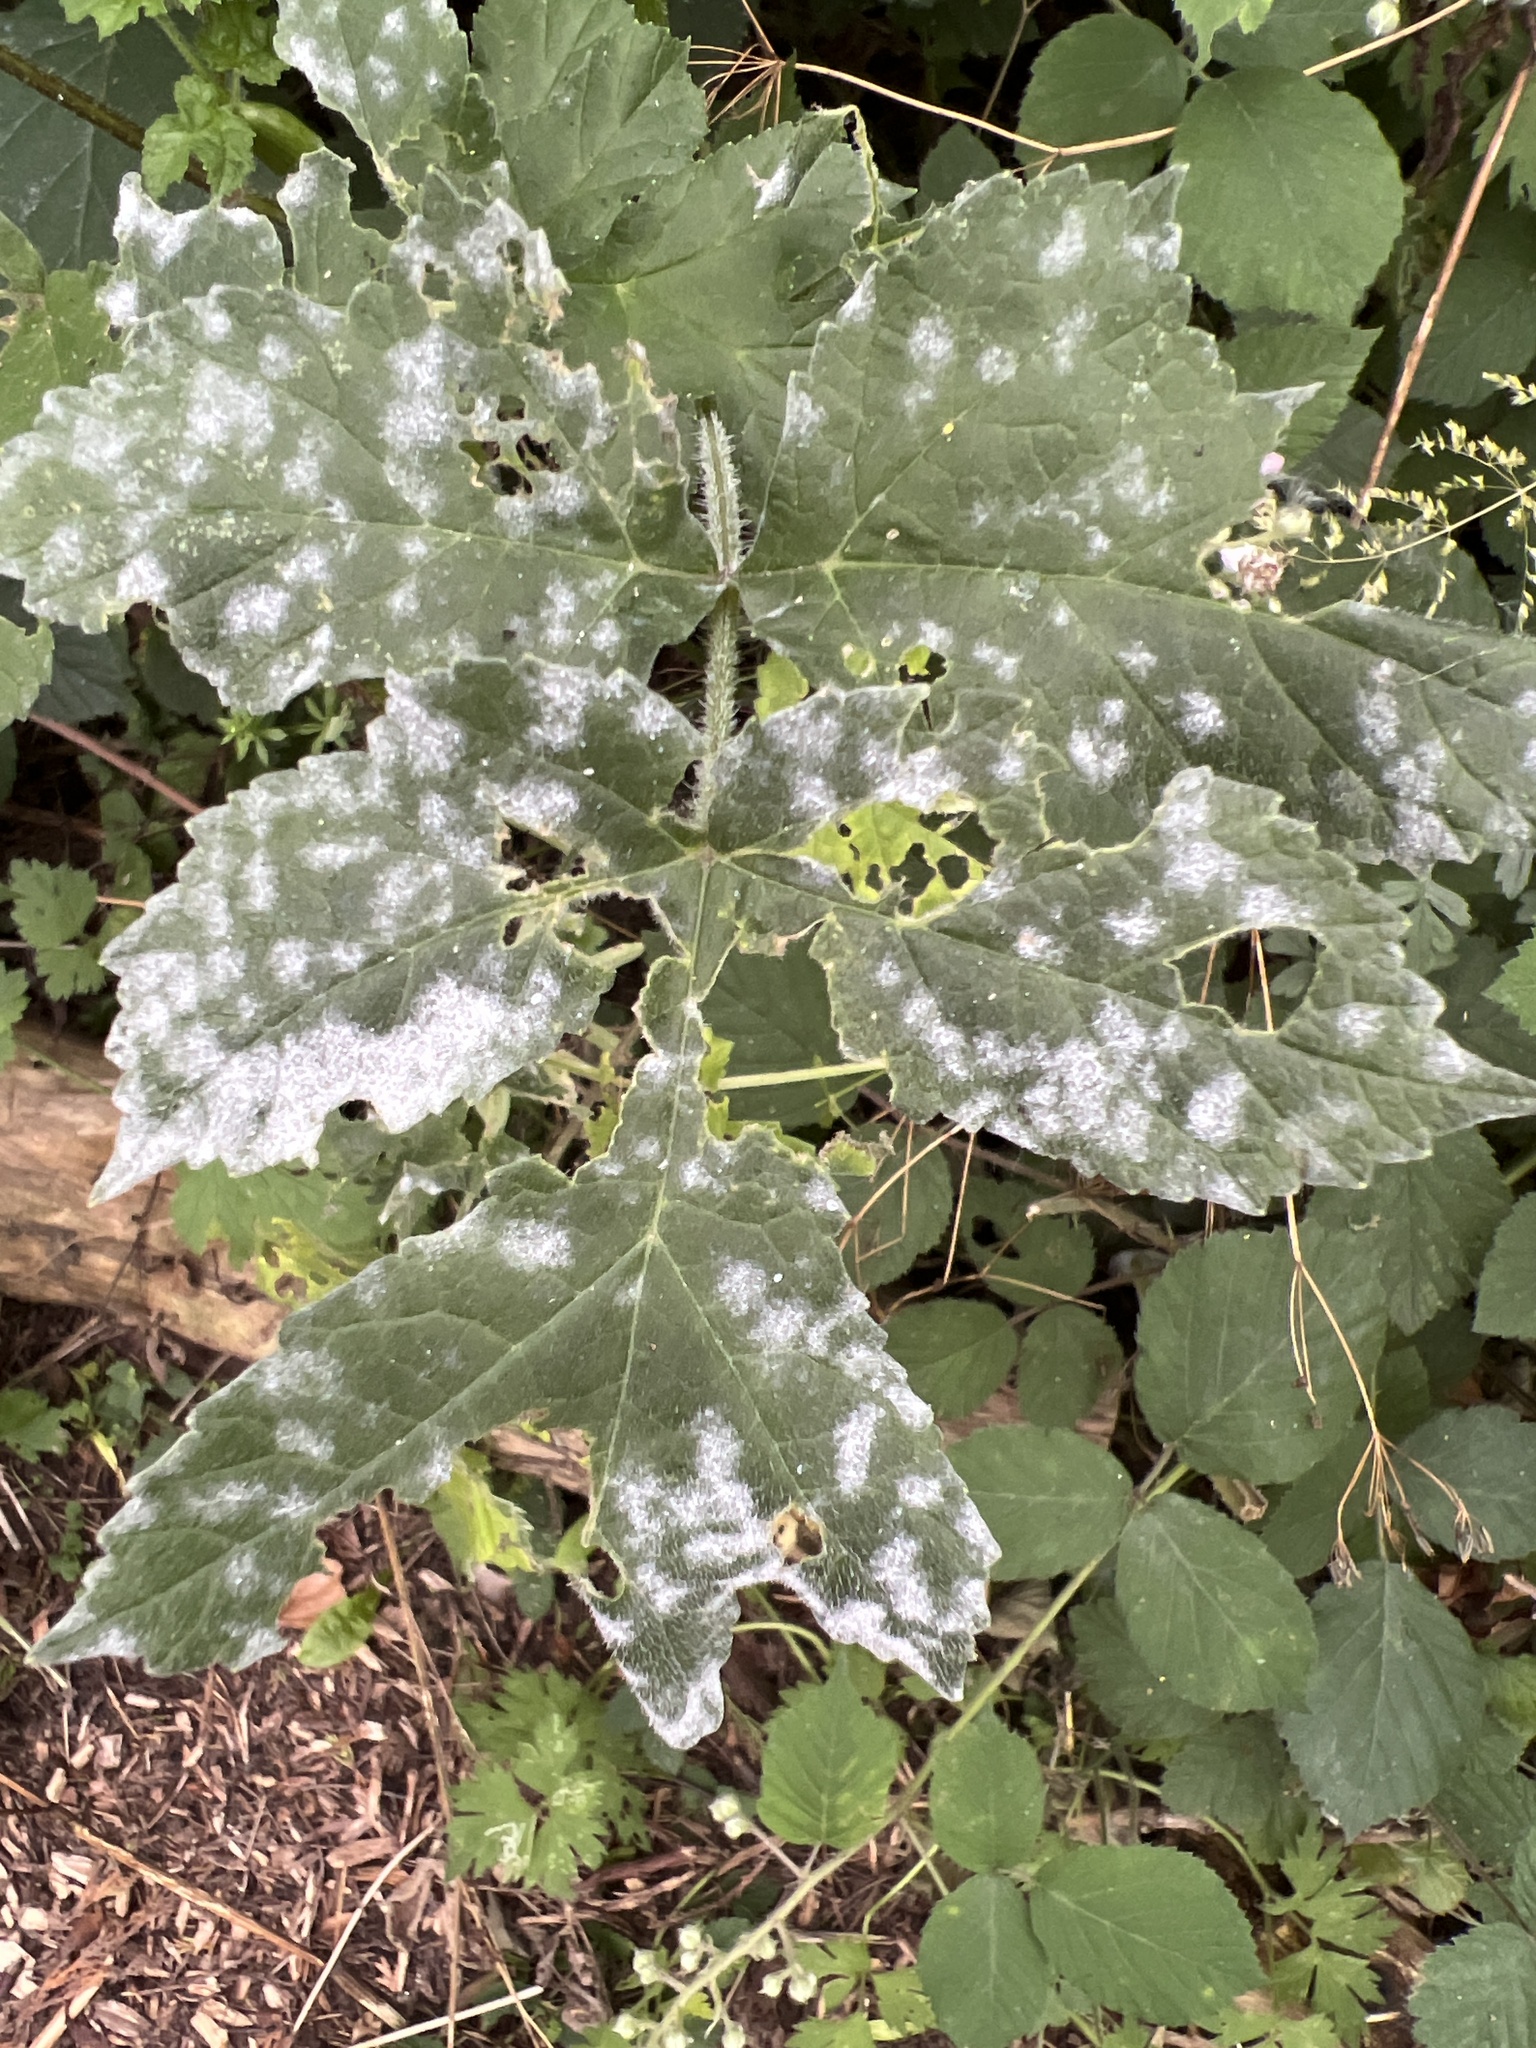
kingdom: Fungi
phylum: Ascomycota
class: Leotiomycetes
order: Helotiales
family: Erysiphaceae
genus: Erysiphe
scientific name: Erysiphe heraclei
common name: Umbellifer mildew
